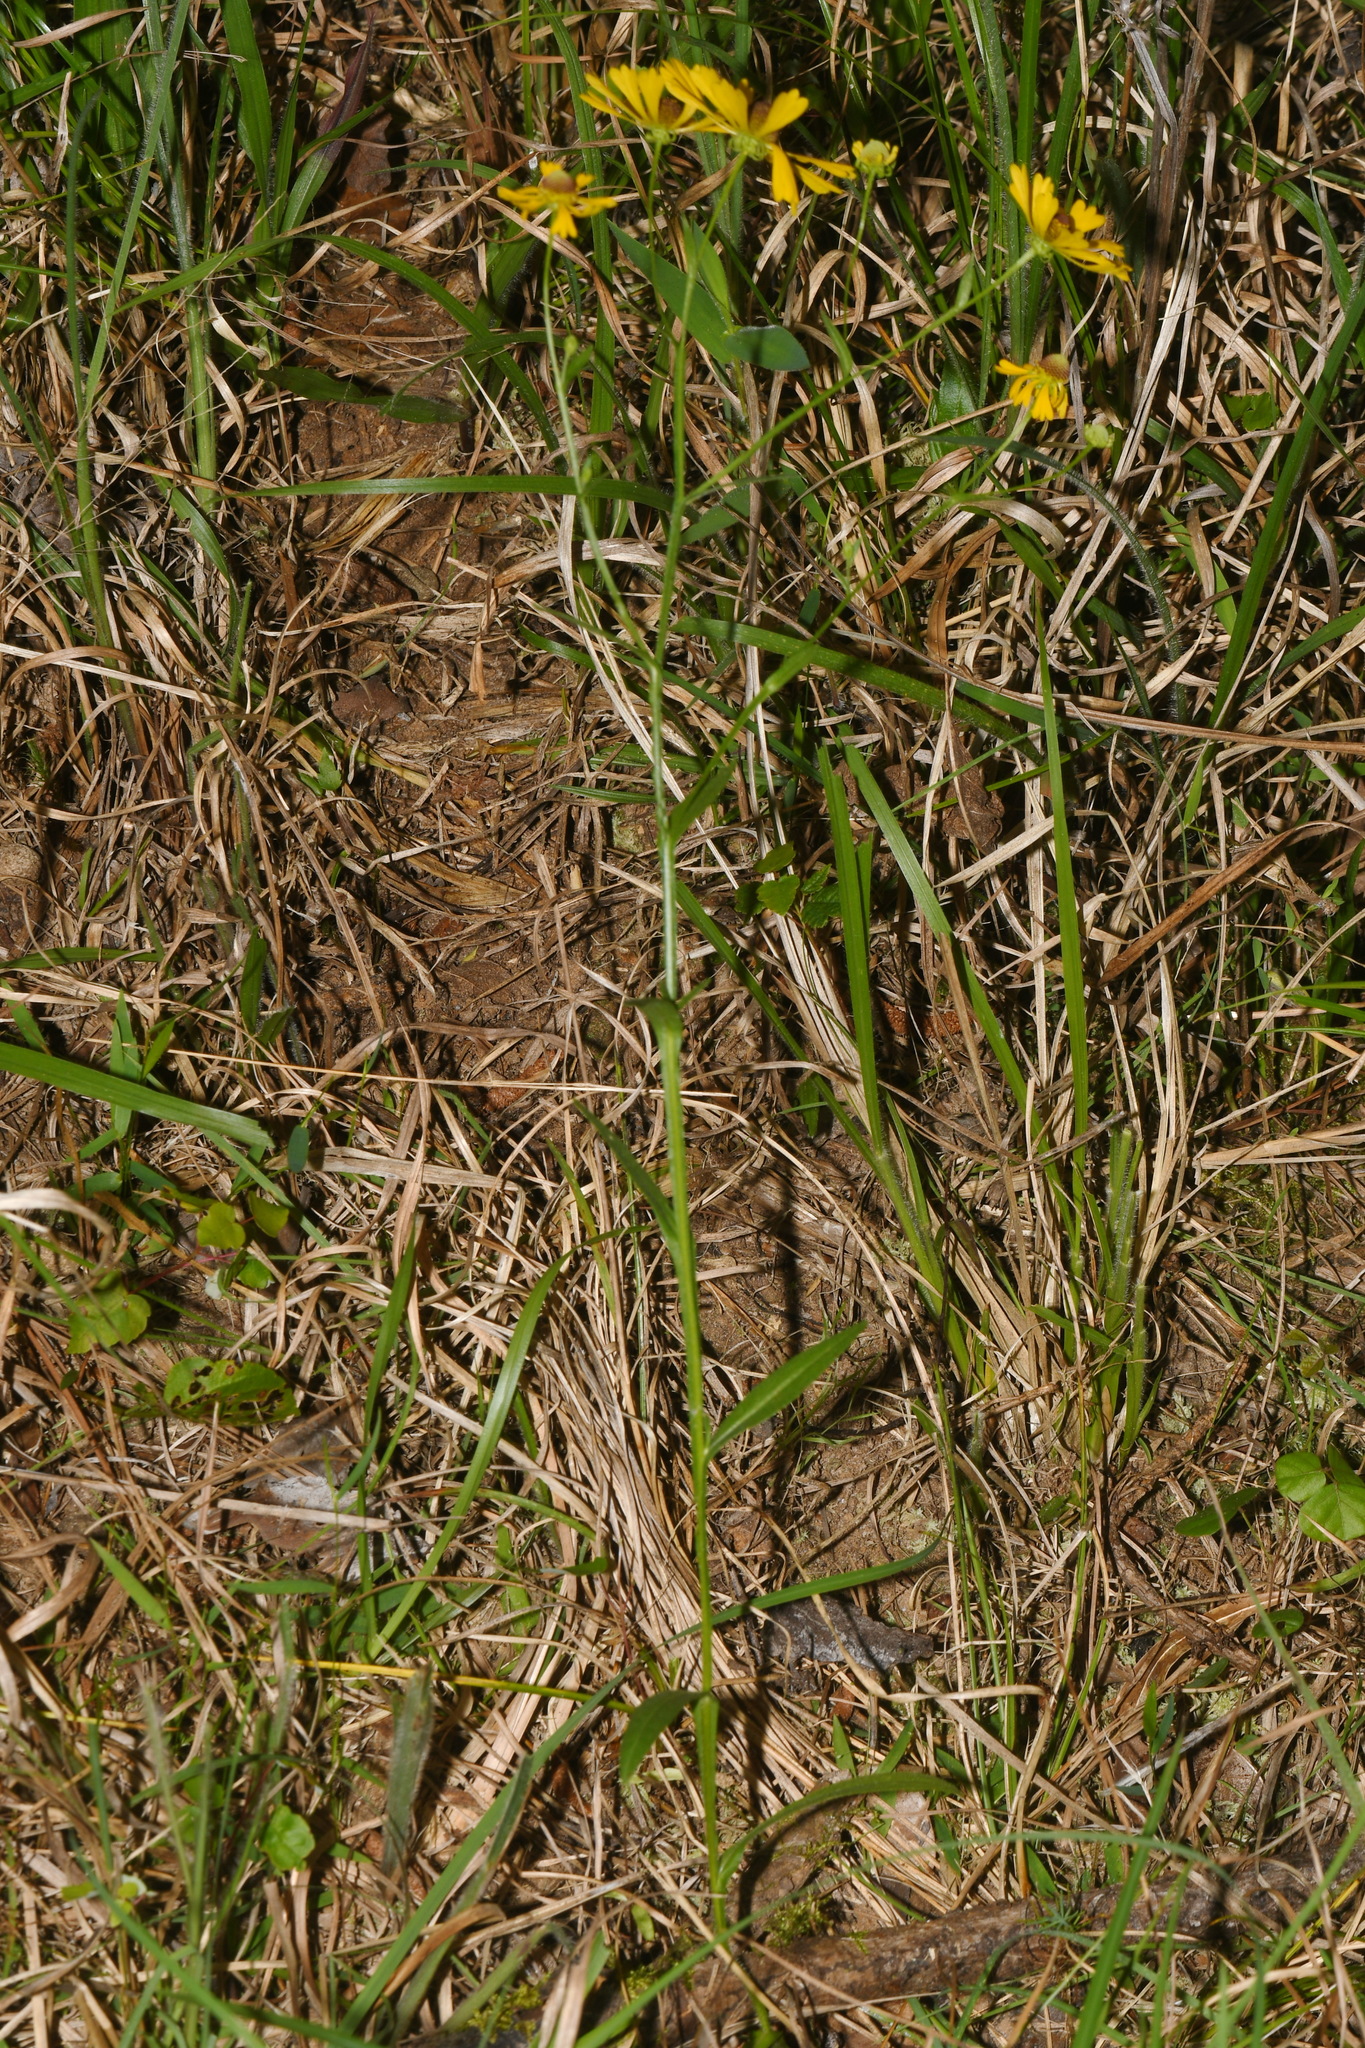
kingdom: Plantae
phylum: Tracheophyta
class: Magnoliopsida
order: Asterales
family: Asteraceae
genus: Helenium
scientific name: Helenium flexuosum
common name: Naked-flowered sneezeweed
